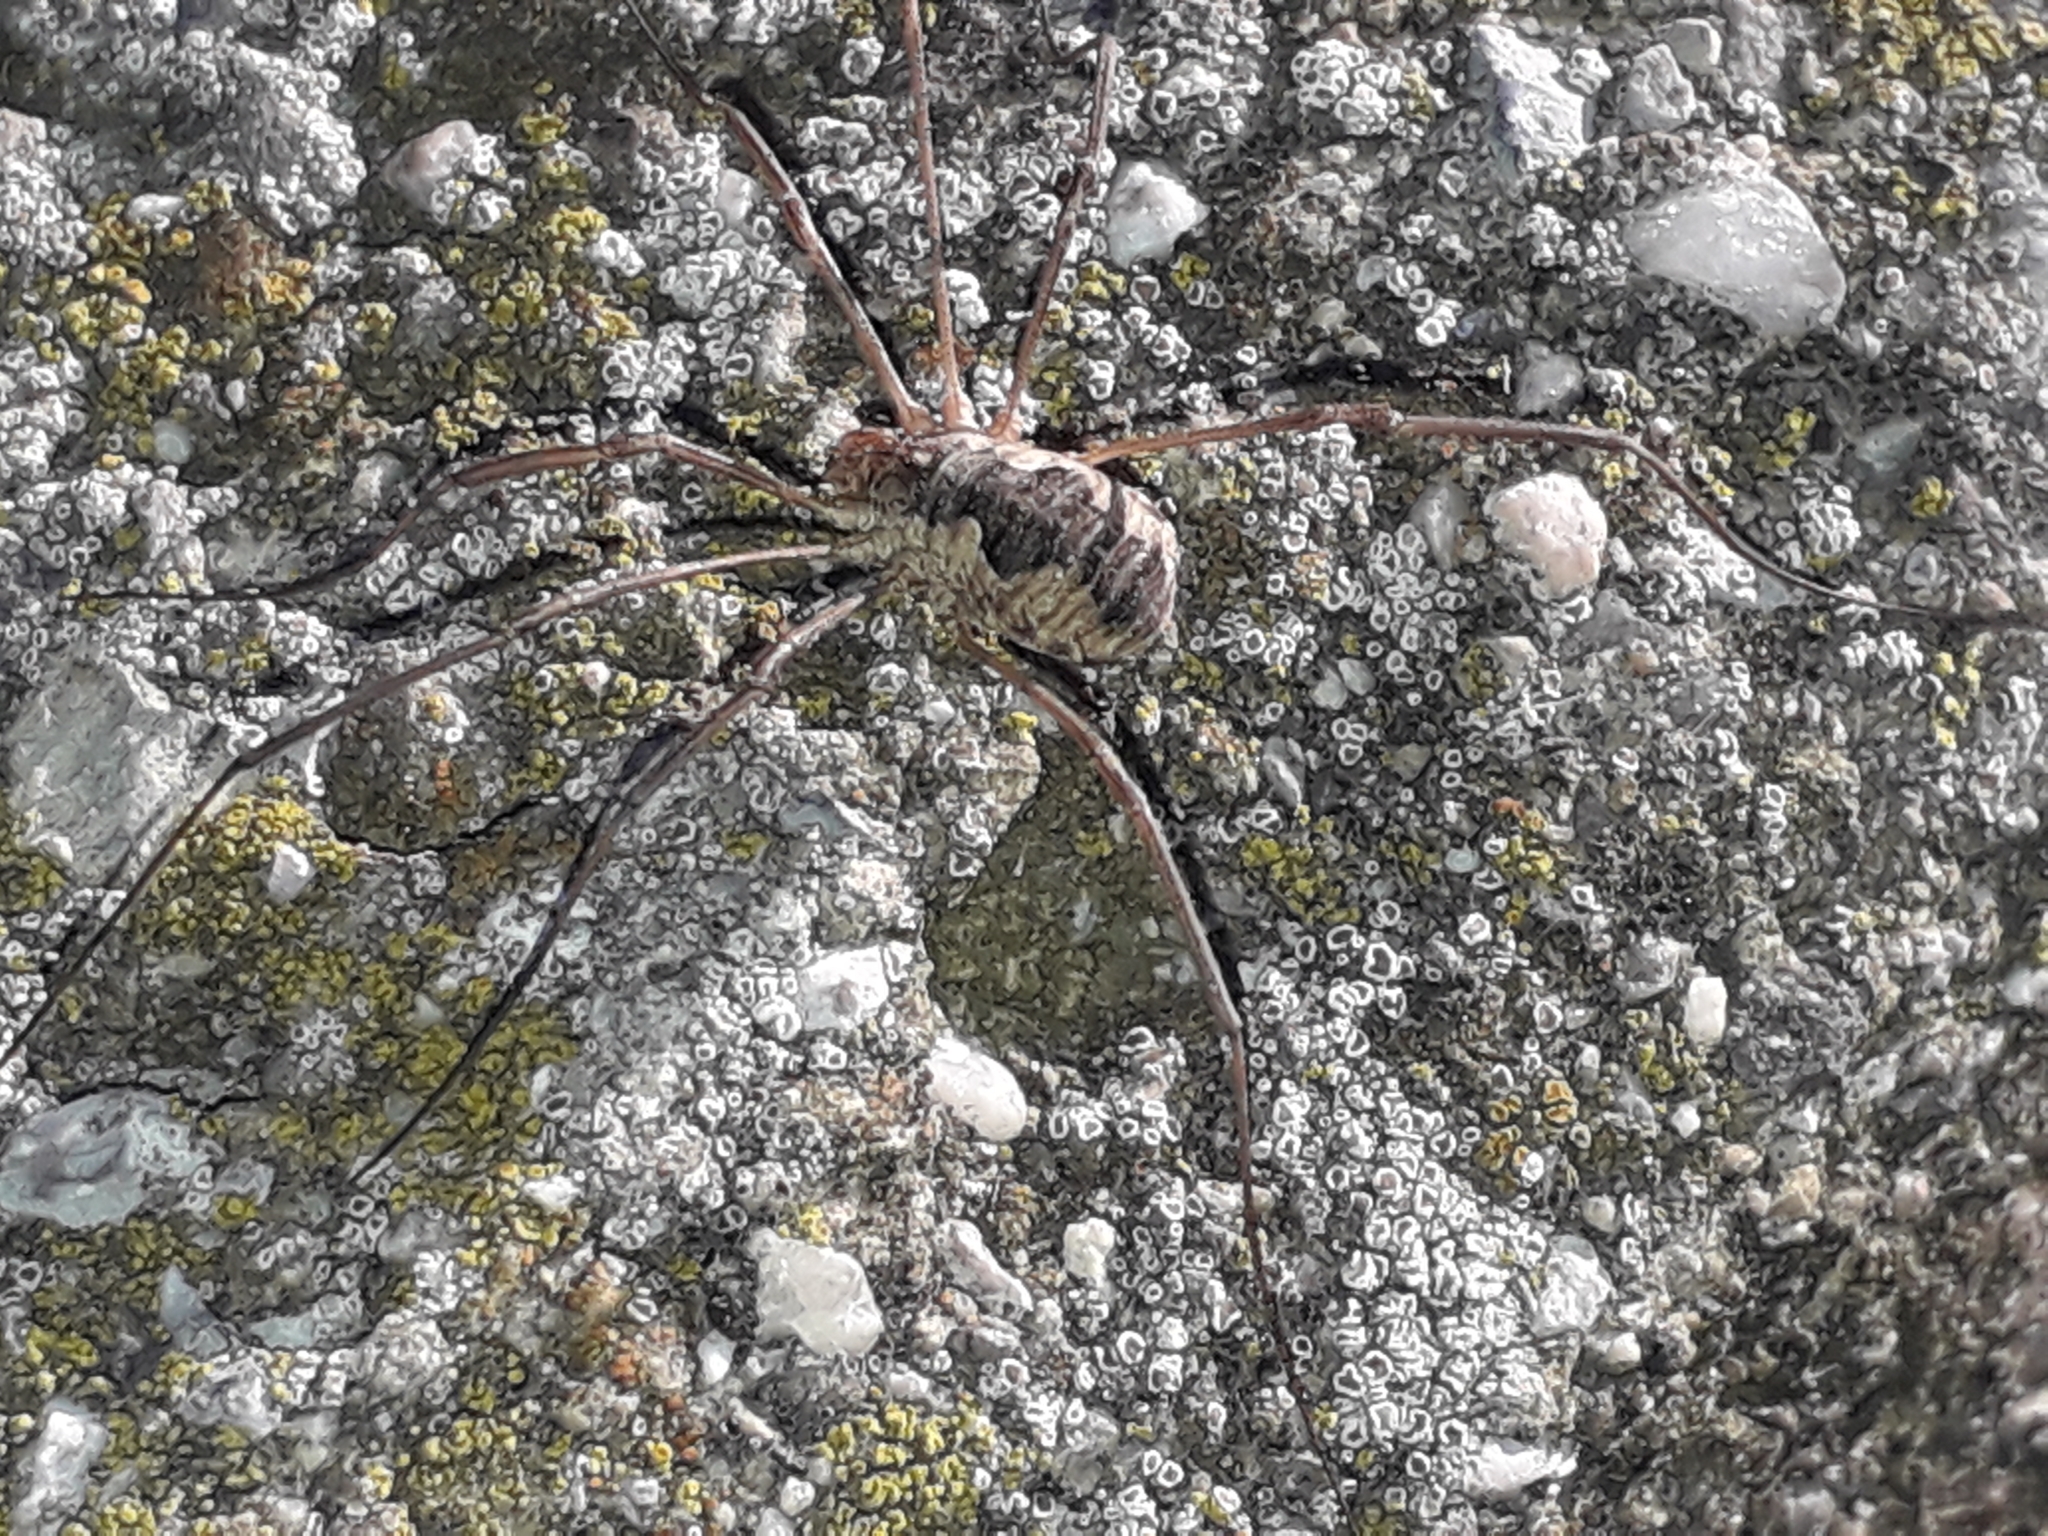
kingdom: Animalia
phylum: Arthropoda
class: Arachnida
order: Opiliones
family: Phalangiidae
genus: Phalangium
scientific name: Phalangium opilio
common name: Daddy longleg
